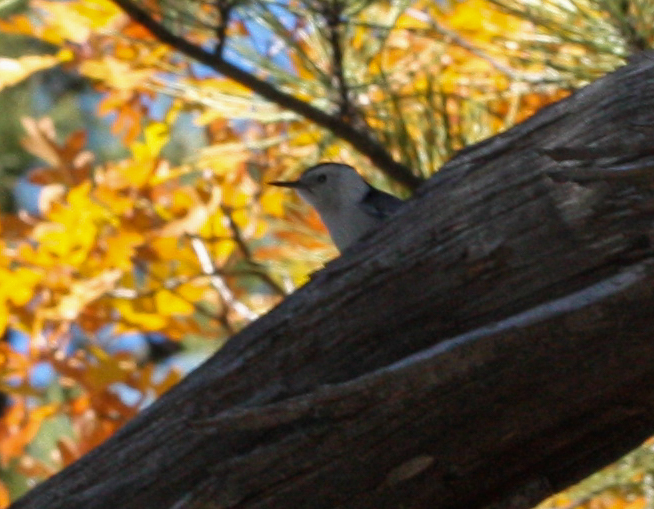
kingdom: Animalia
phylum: Chordata
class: Aves
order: Passeriformes
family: Sittidae
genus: Sitta
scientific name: Sitta carolinensis
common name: White-breasted nuthatch
